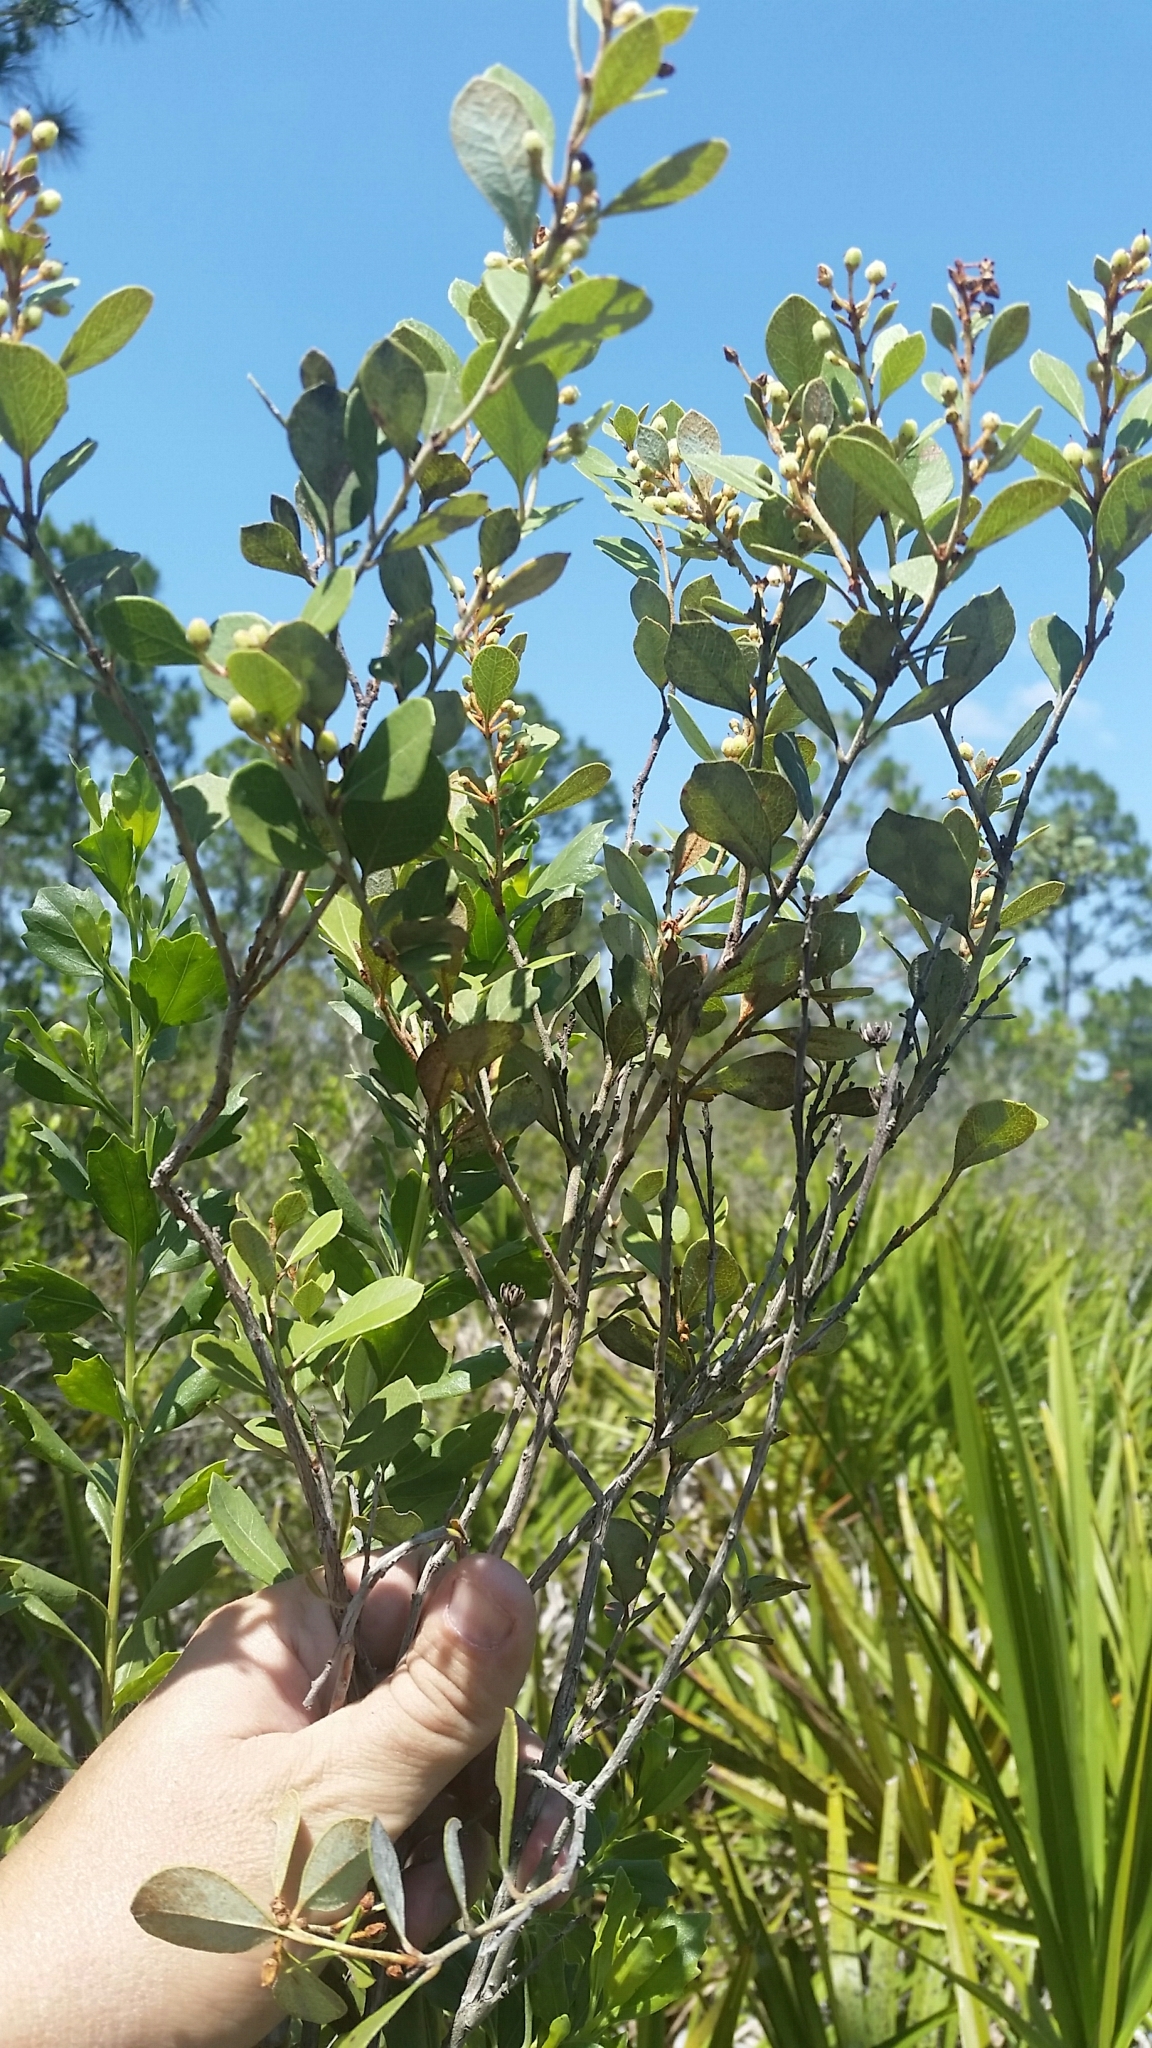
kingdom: Plantae
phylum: Tracheophyta
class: Magnoliopsida
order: Ericales
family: Ericaceae
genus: Lyonia
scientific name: Lyonia fruticosa
